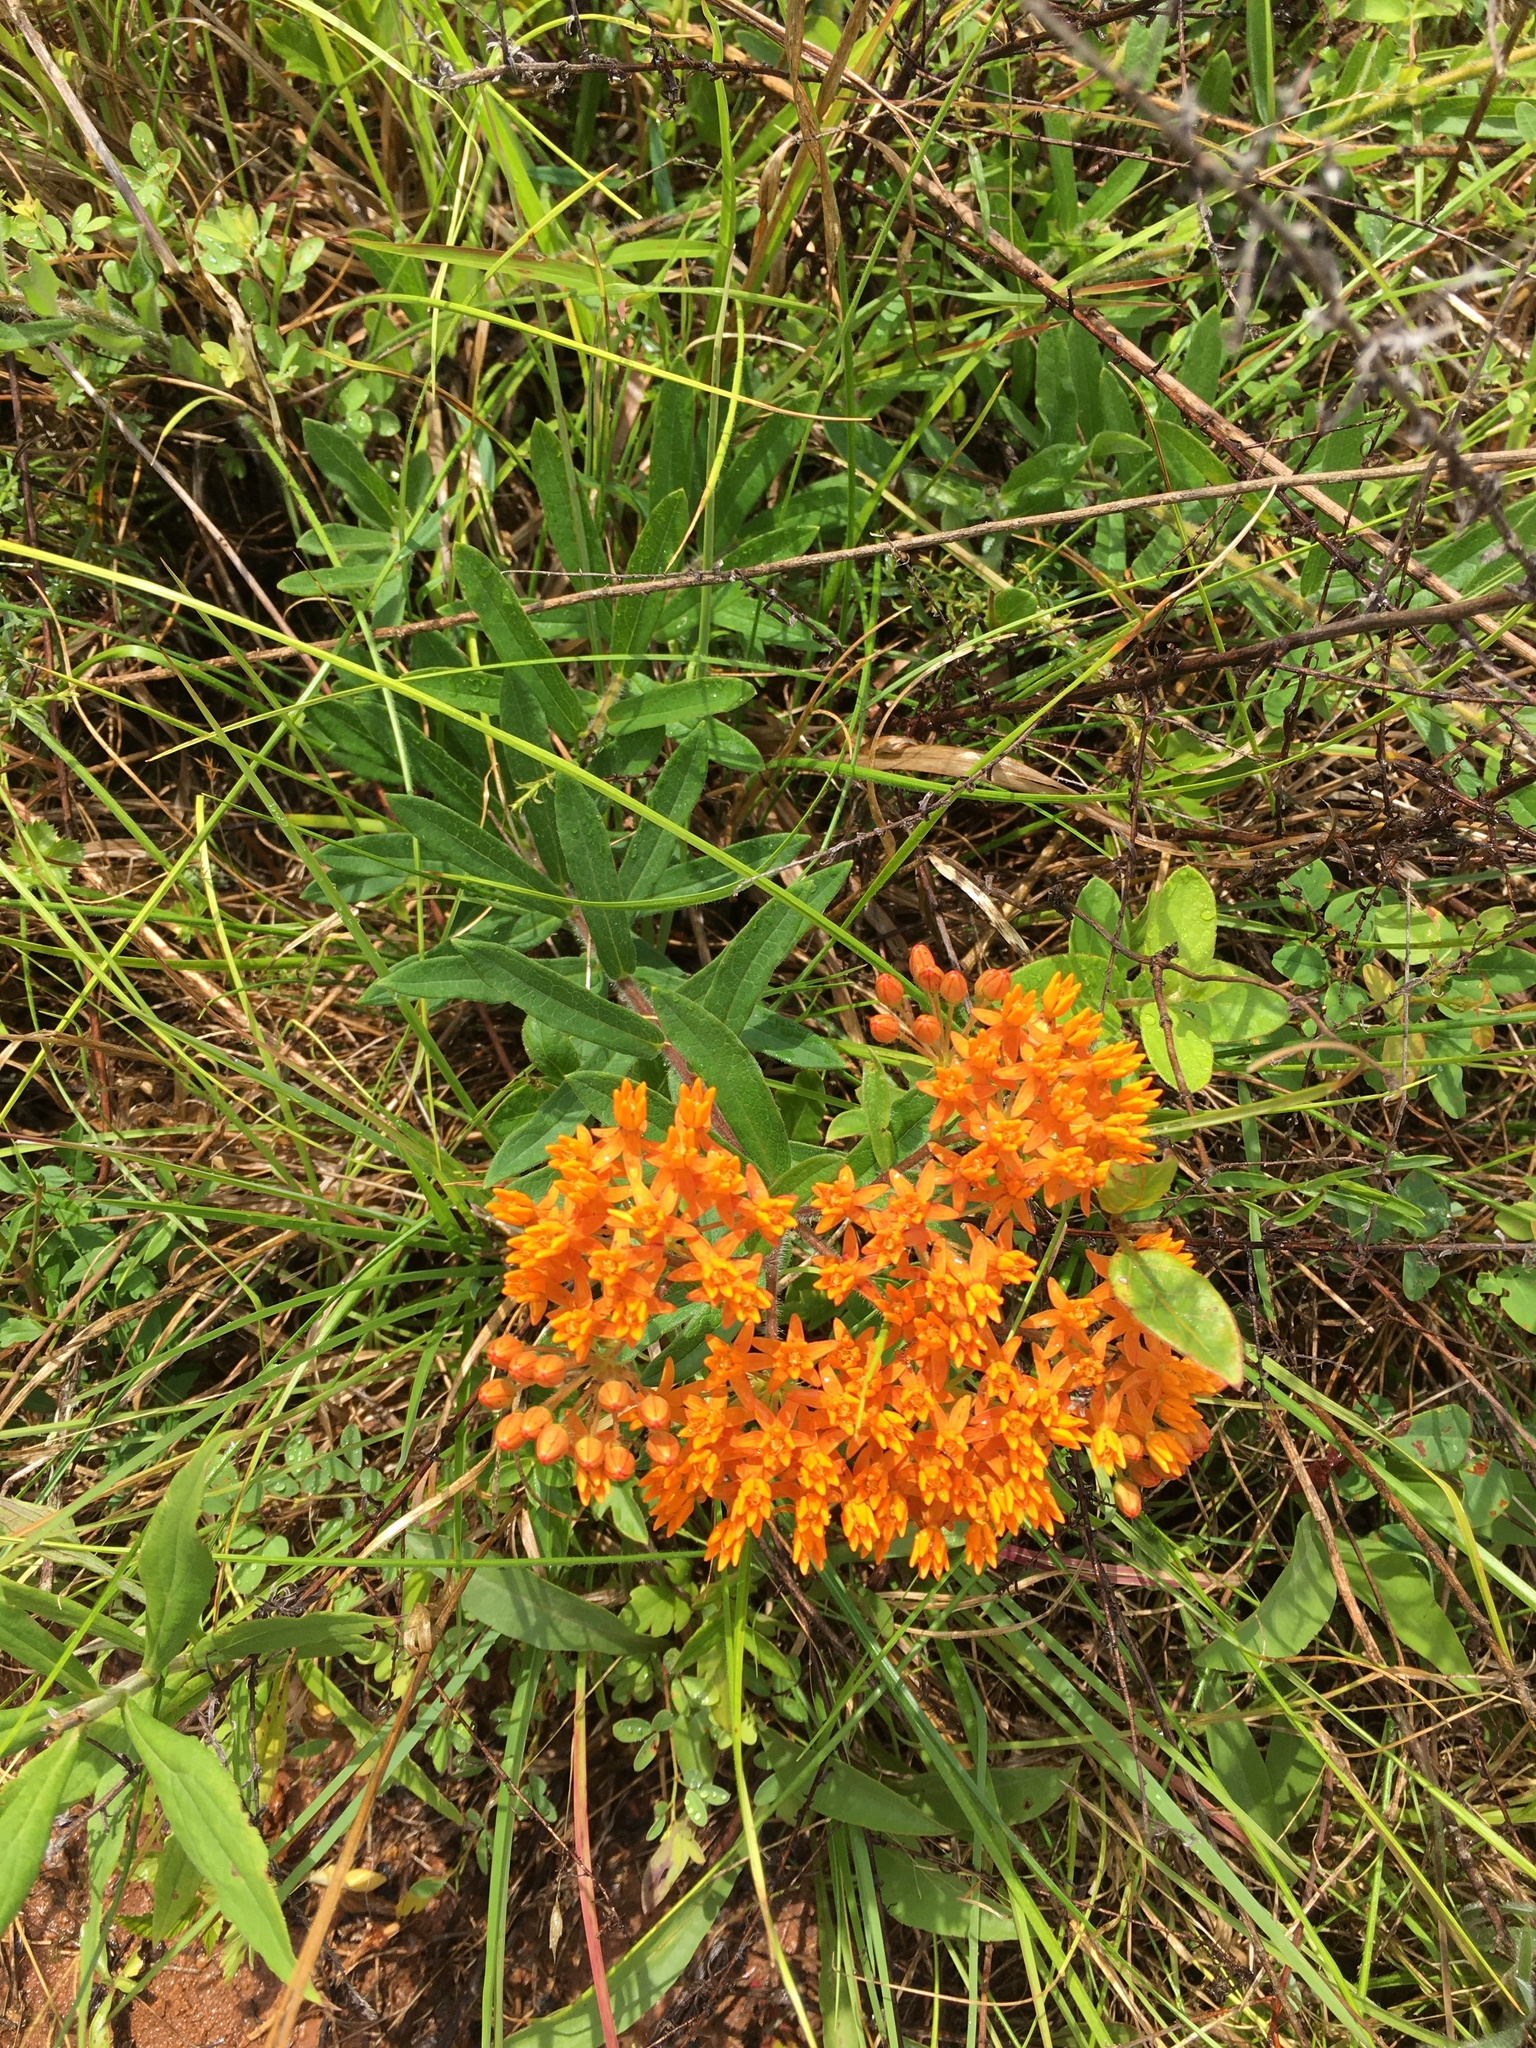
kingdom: Plantae
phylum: Tracheophyta
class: Magnoliopsida
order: Gentianales
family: Apocynaceae
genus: Asclepias
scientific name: Asclepias tuberosa
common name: Butterfly milkweed
